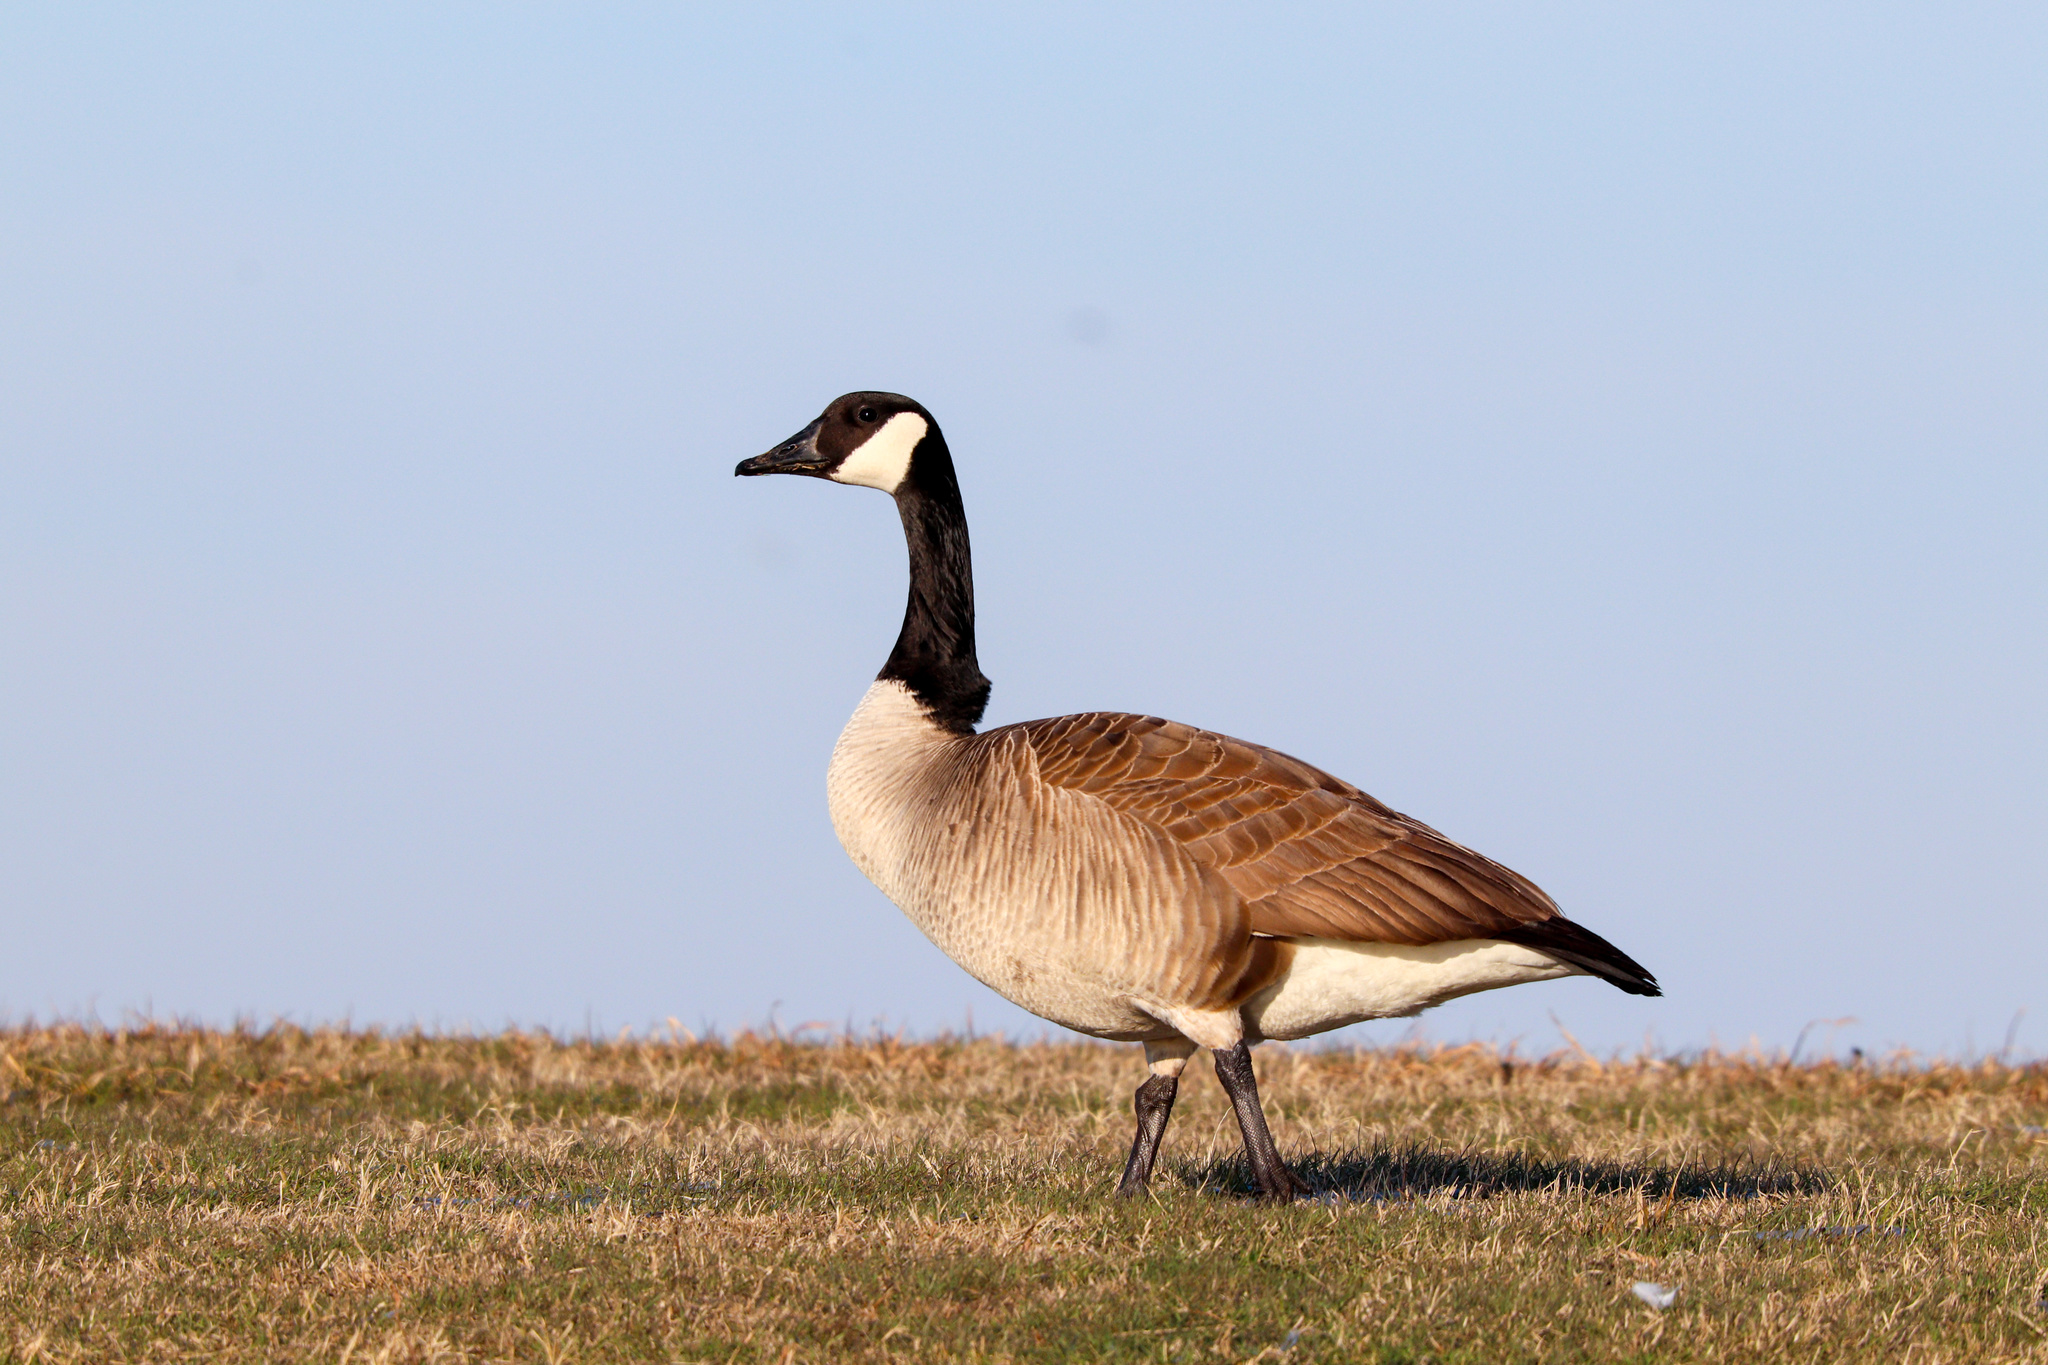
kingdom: Animalia
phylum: Chordata
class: Aves
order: Anseriformes
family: Anatidae
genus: Branta
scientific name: Branta canadensis
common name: Canada goose
